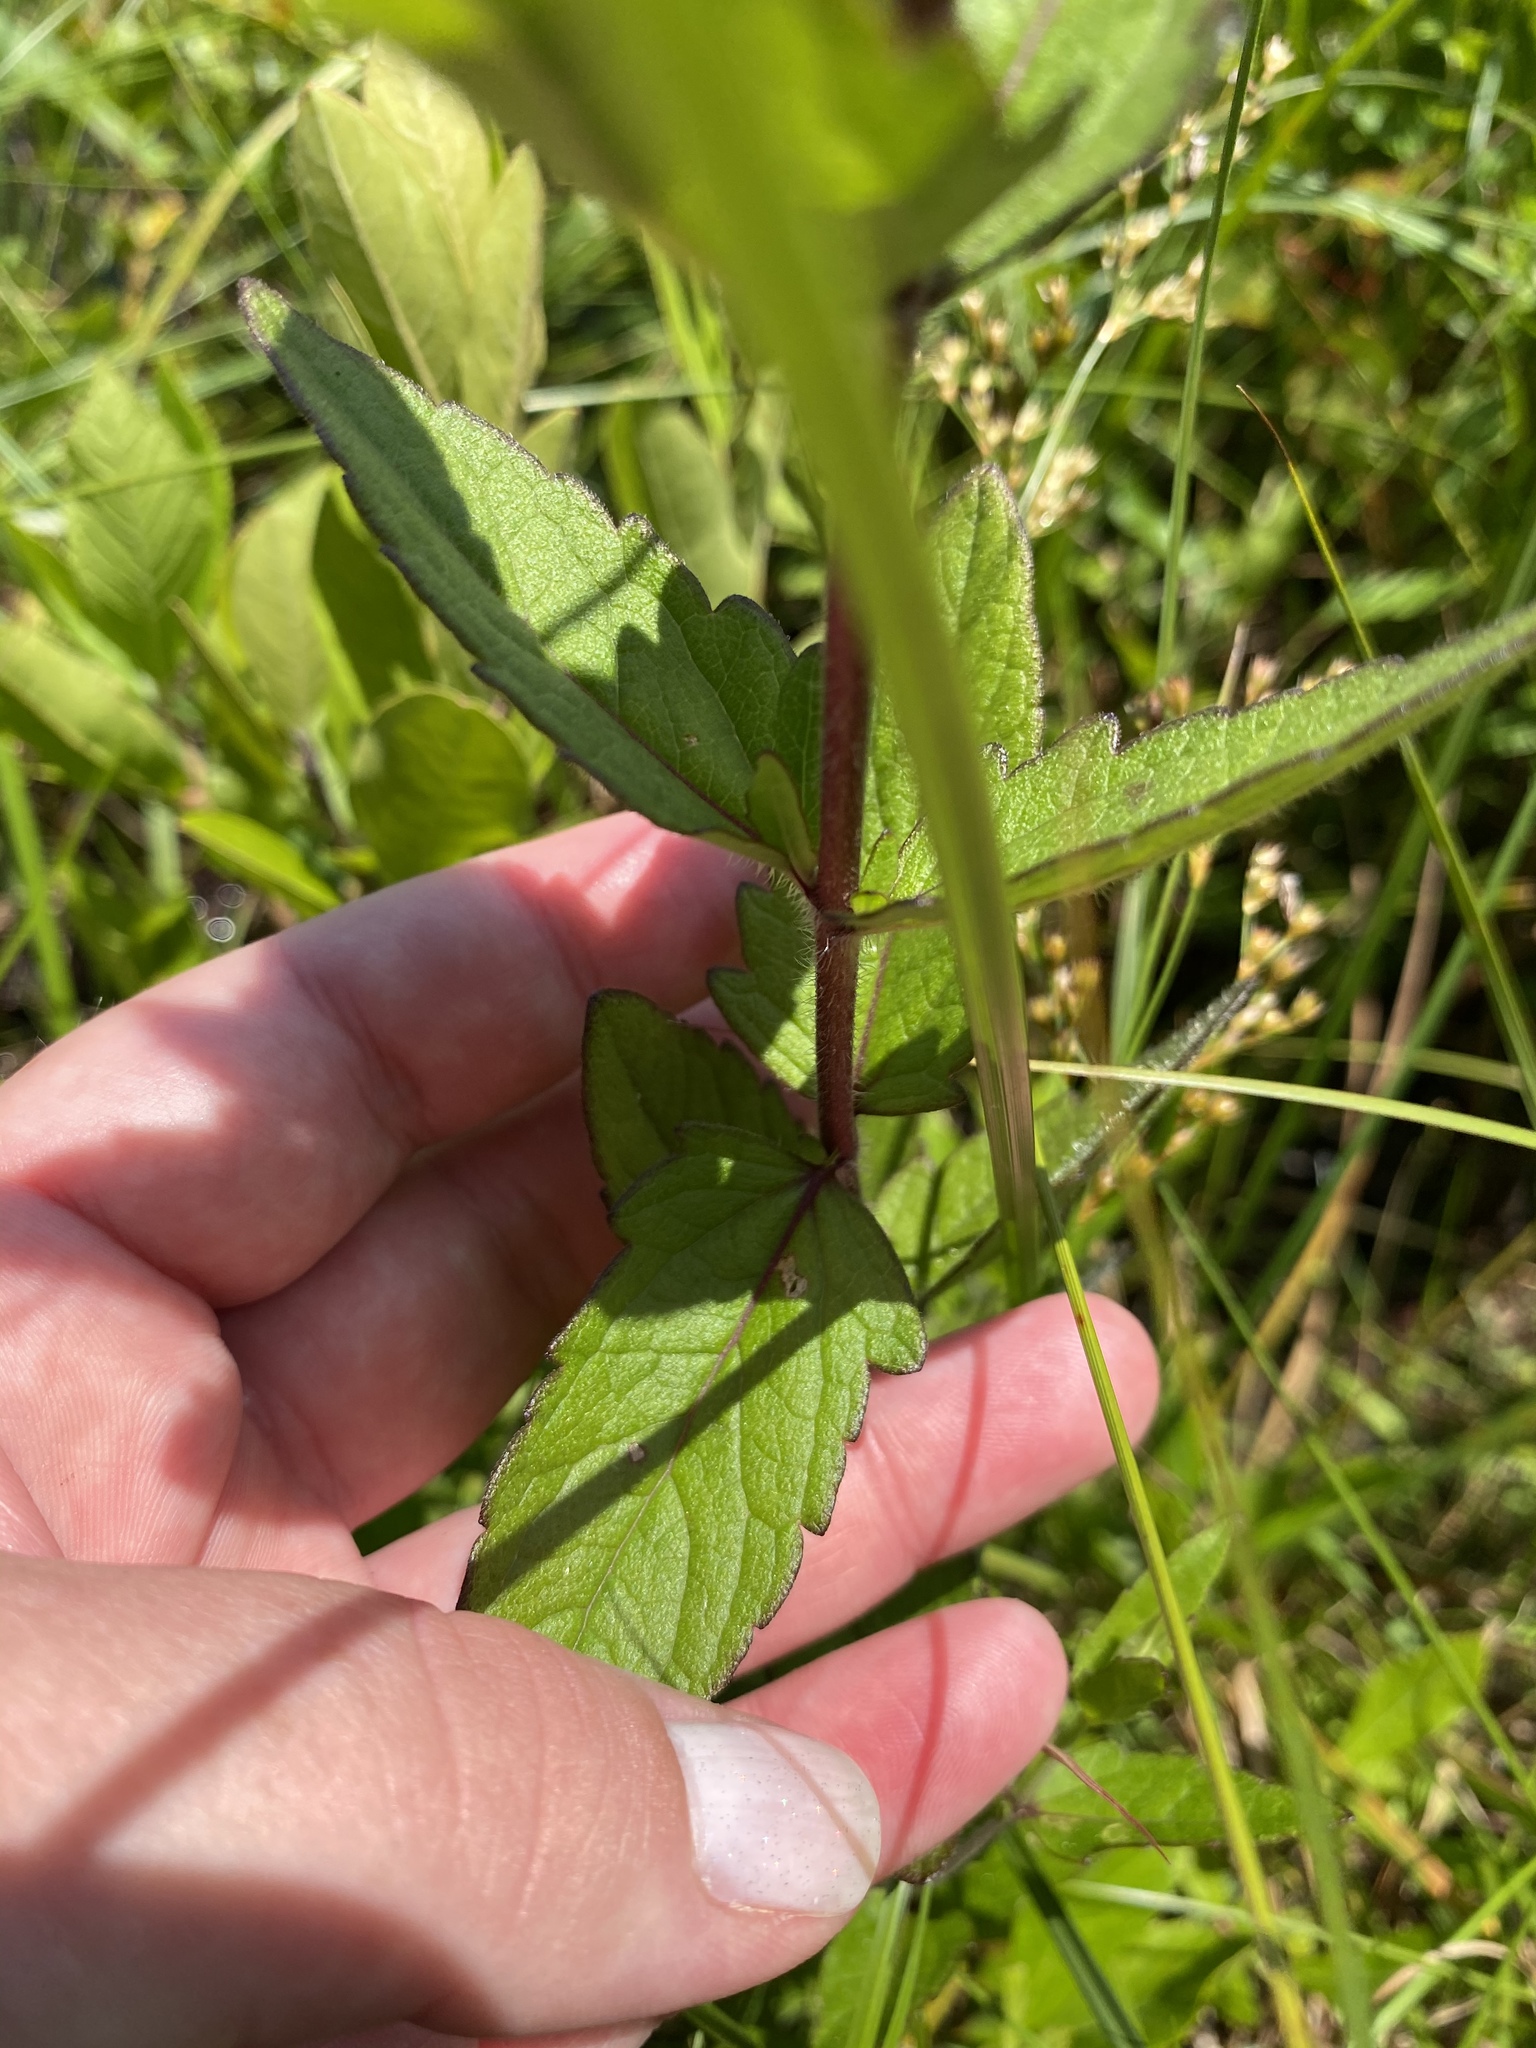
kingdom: Plantae
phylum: Tracheophyta
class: Magnoliopsida
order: Asterales
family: Asteraceae
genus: Eupatorium
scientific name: Eupatorium pilosum
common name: Rough boneset
